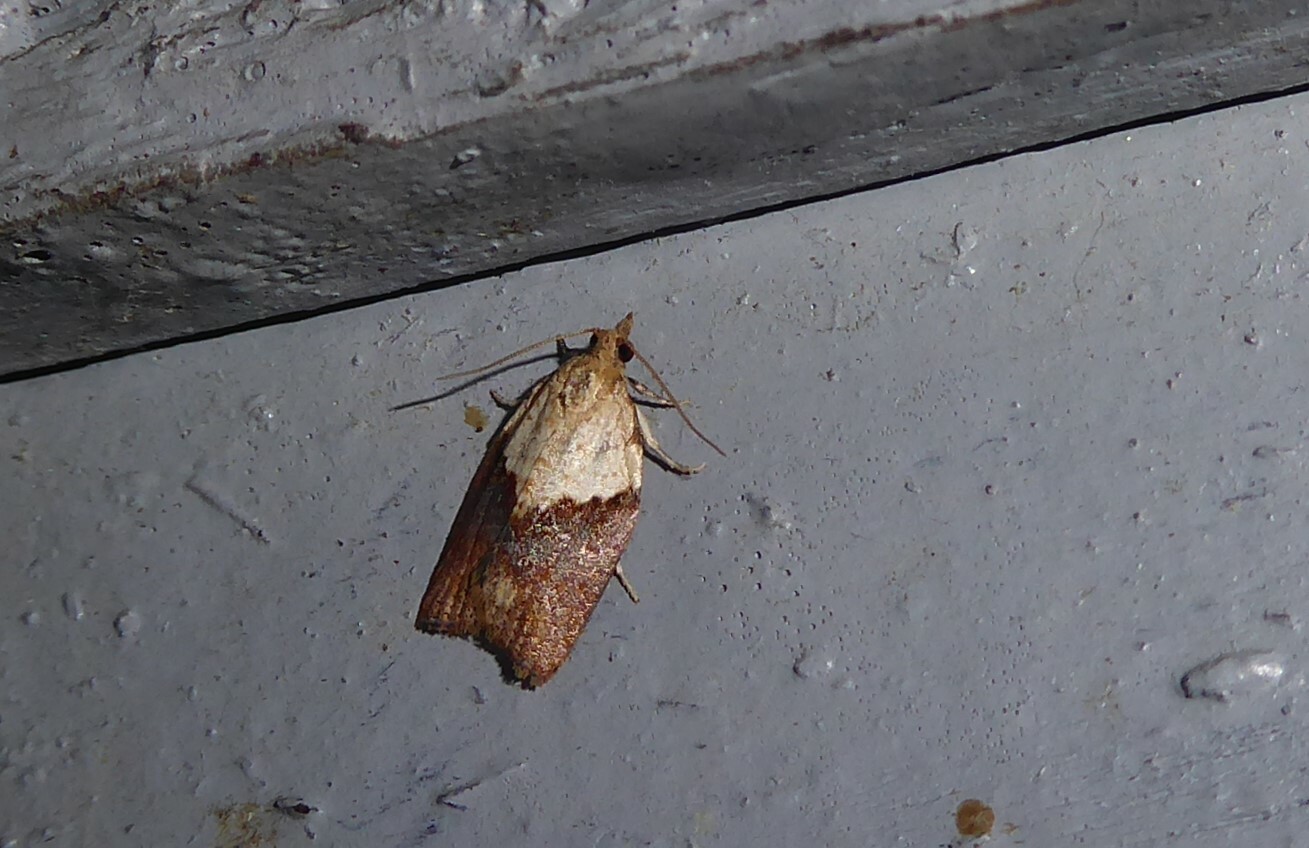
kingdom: Animalia
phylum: Arthropoda
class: Insecta
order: Lepidoptera
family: Tortricidae
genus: Epiphyas
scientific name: Epiphyas postvittana
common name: Light brown apple moth
